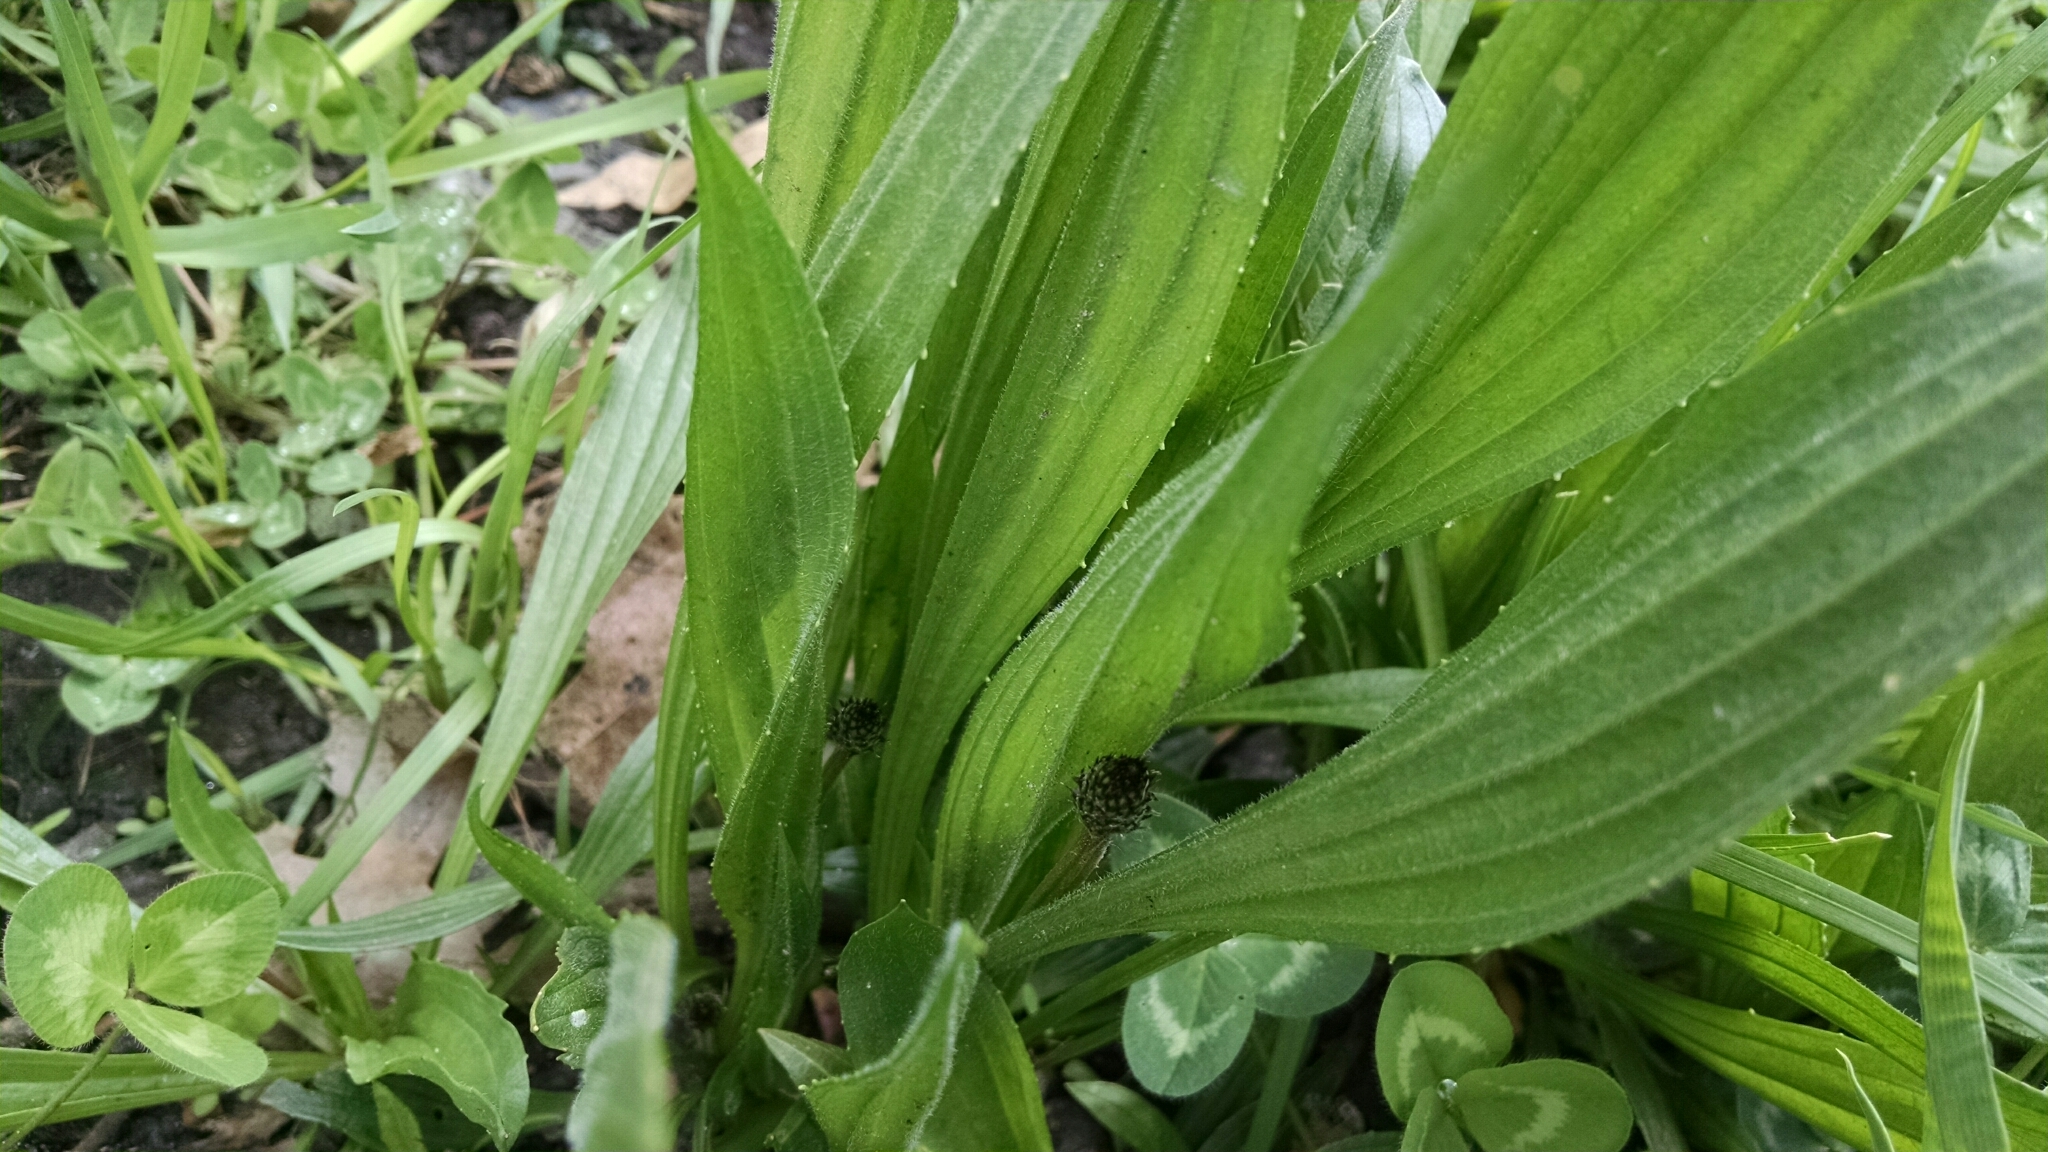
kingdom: Plantae
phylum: Tracheophyta
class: Magnoliopsida
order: Lamiales
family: Plantaginaceae
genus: Plantago
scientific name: Plantago lanceolata
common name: Ribwort plantain
